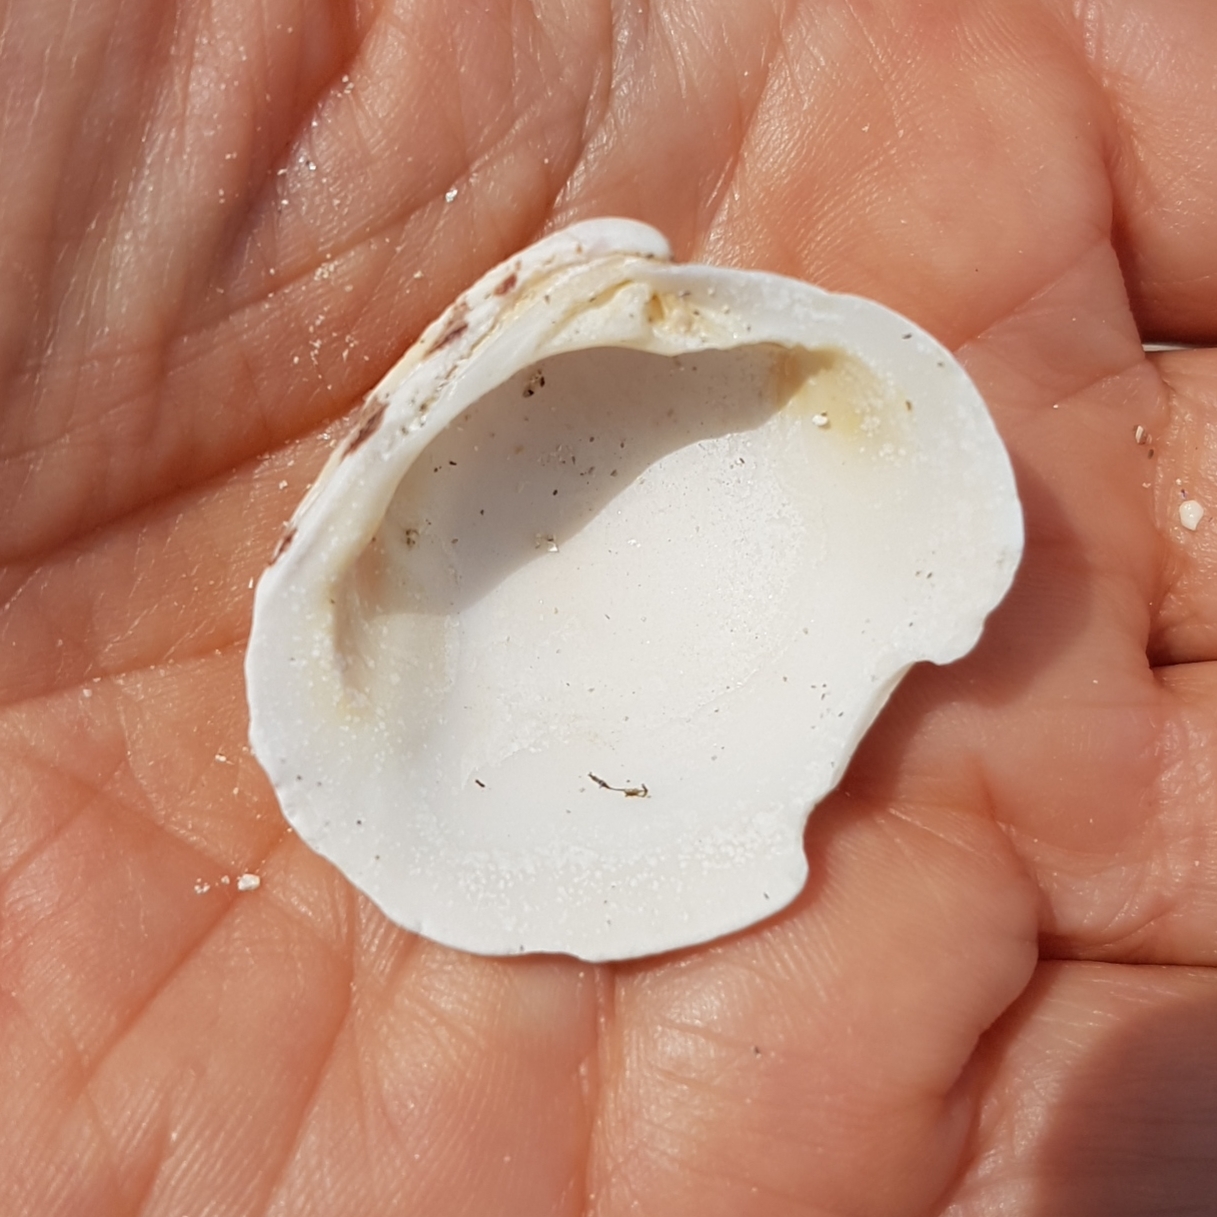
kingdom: Animalia
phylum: Mollusca
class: Bivalvia
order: Venerida
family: Veneridae
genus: Venus
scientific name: Venus verrucosa
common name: Warty venus
